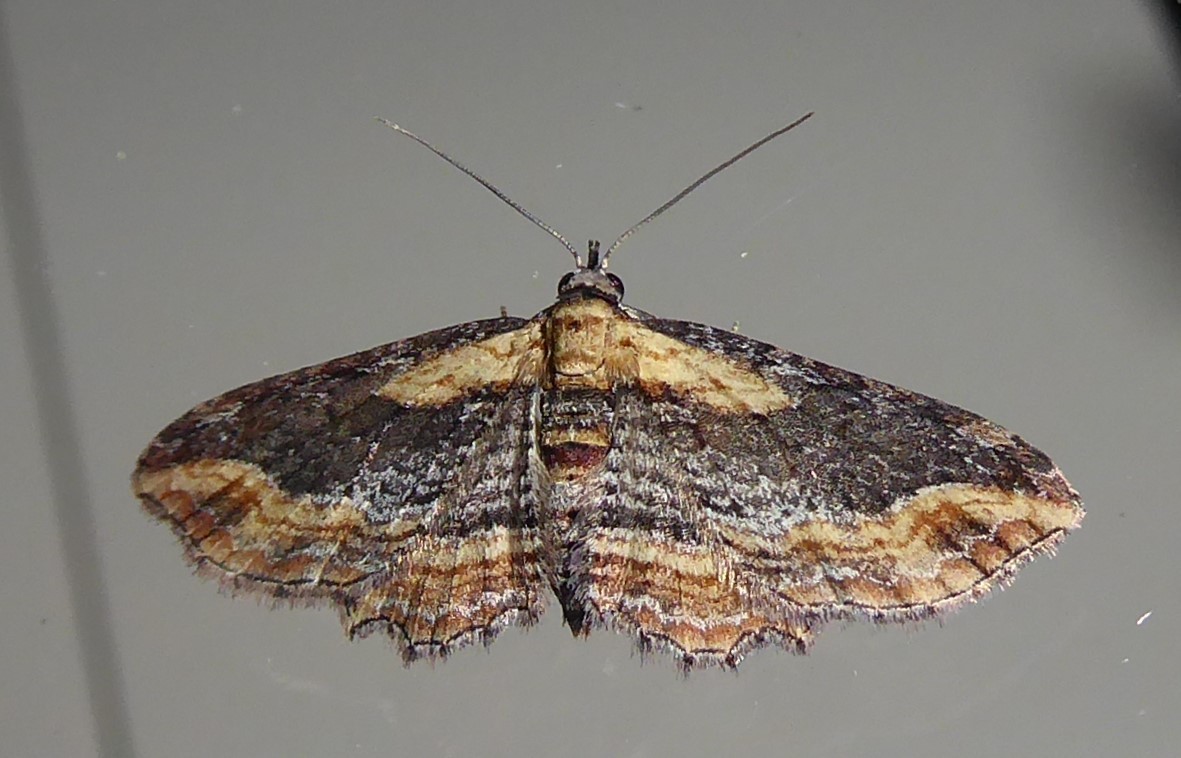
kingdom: Animalia
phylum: Arthropoda
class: Insecta
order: Lepidoptera
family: Geometridae
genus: Chloroclystis
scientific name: Chloroclystis filata
